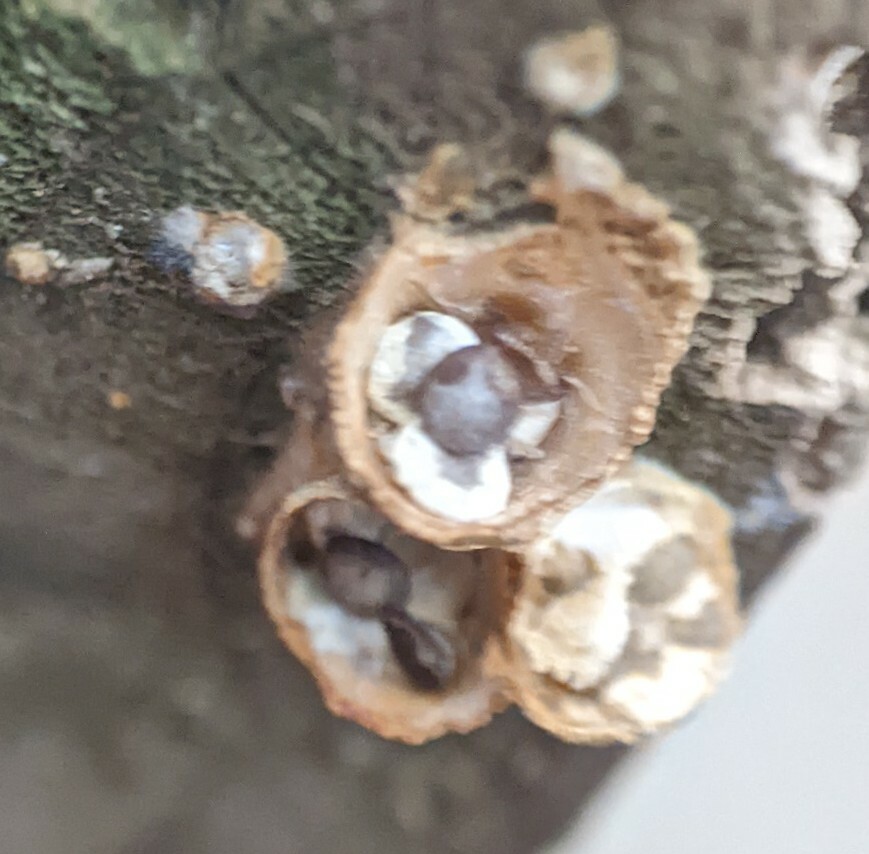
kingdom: Fungi
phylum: Basidiomycota
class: Agaricomycetes
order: Agaricales
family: Nidulariaceae
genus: Crucibulum
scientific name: Crucibulum laeve
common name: Common bird's nest
